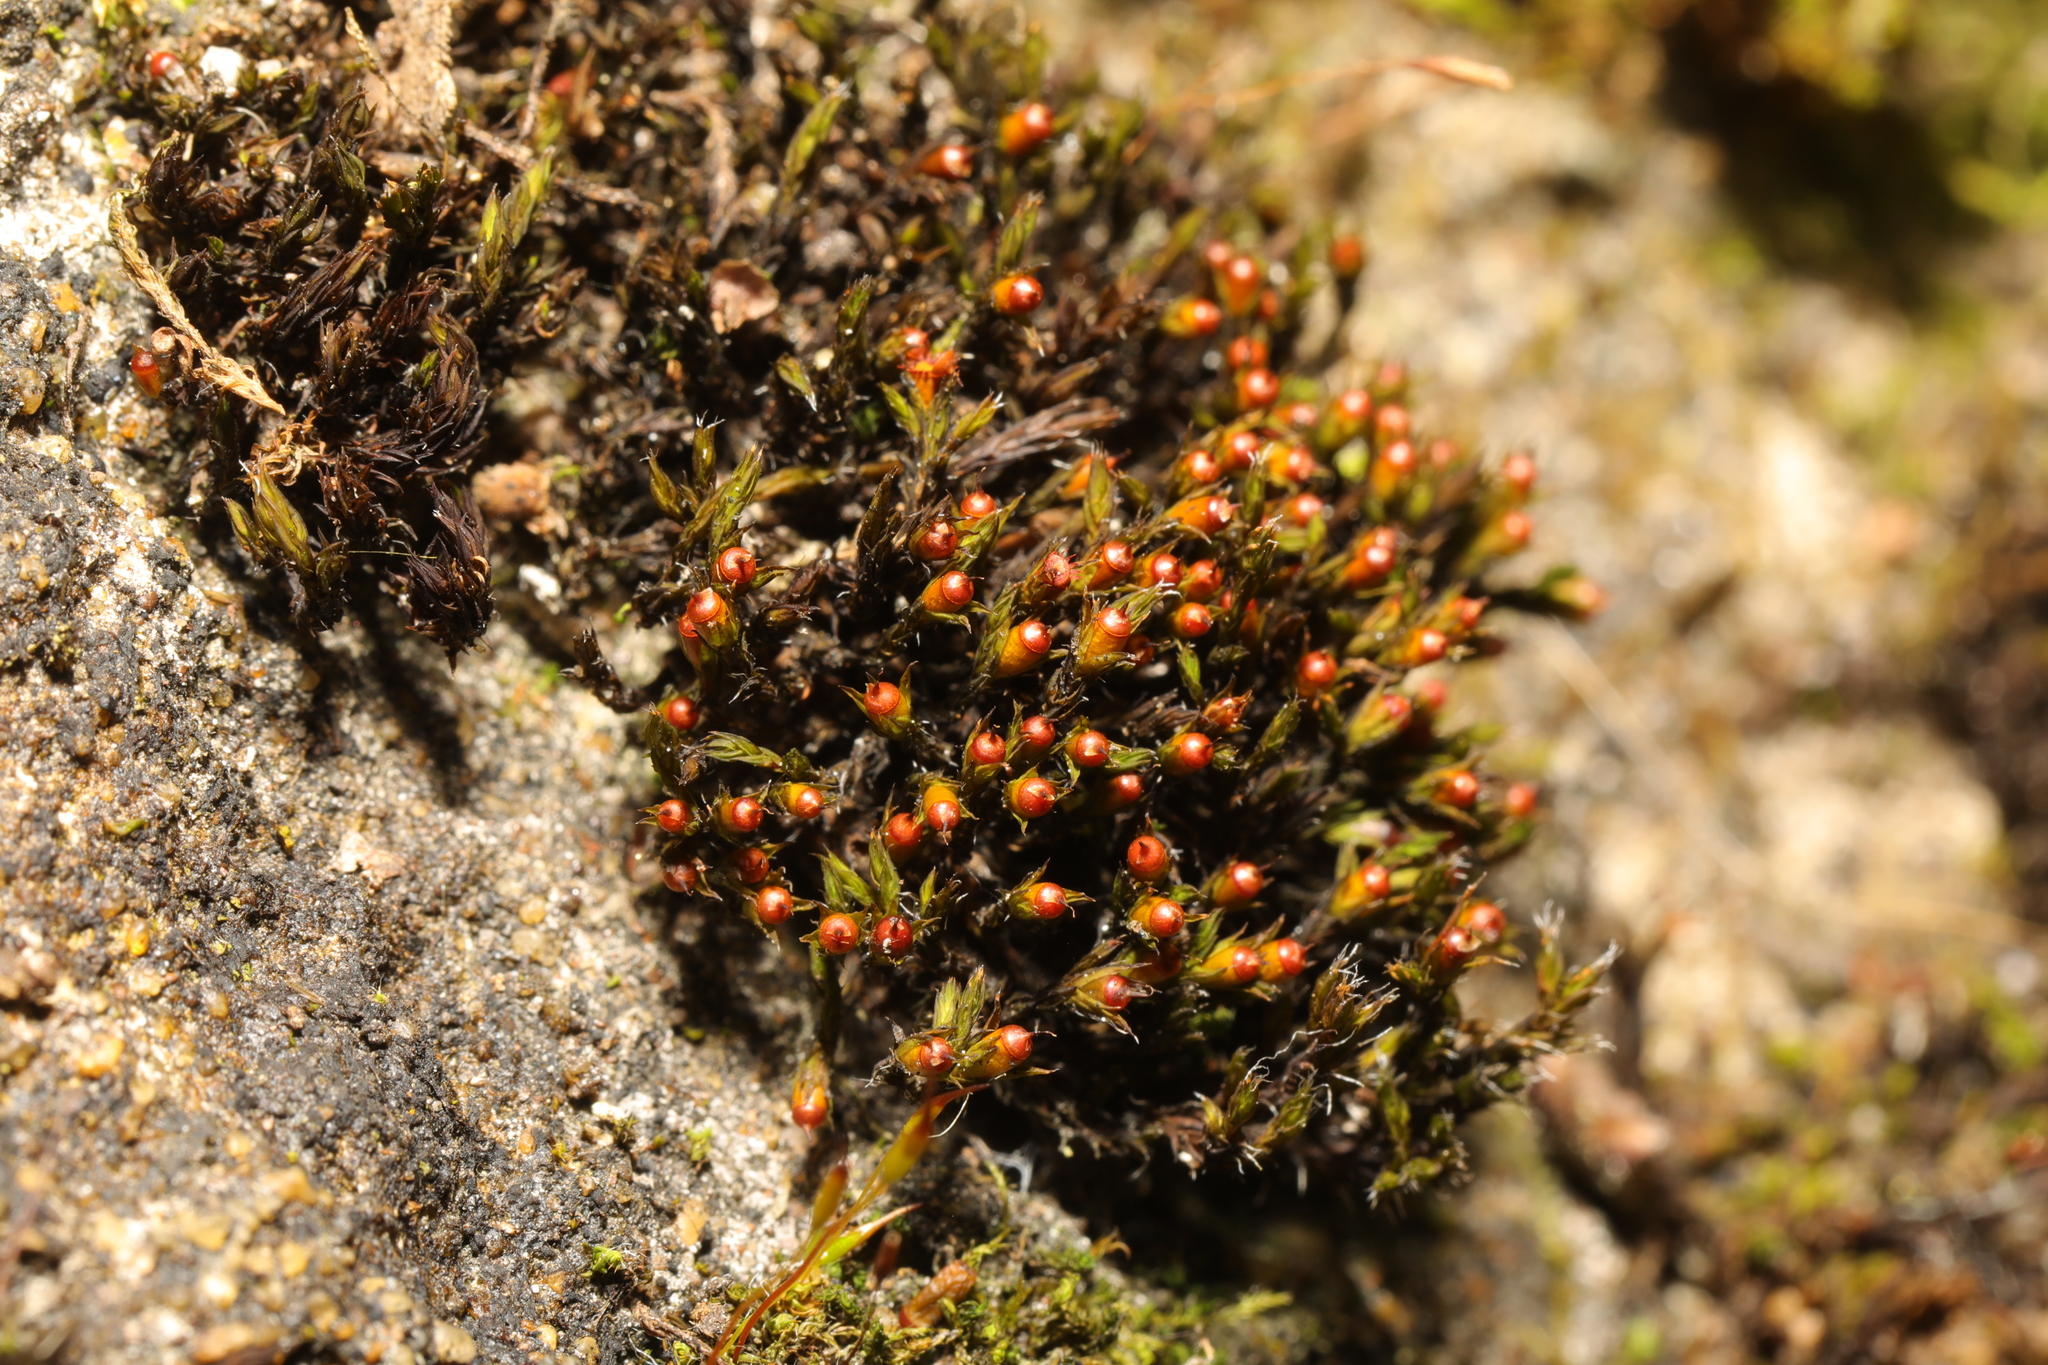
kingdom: Plantae
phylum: Bryophyta
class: Bryopsida
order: Grimmiales
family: Grimmiaceae
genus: Schistidium
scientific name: Schistidium crassipilum
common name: Thickpoint bloom moss
